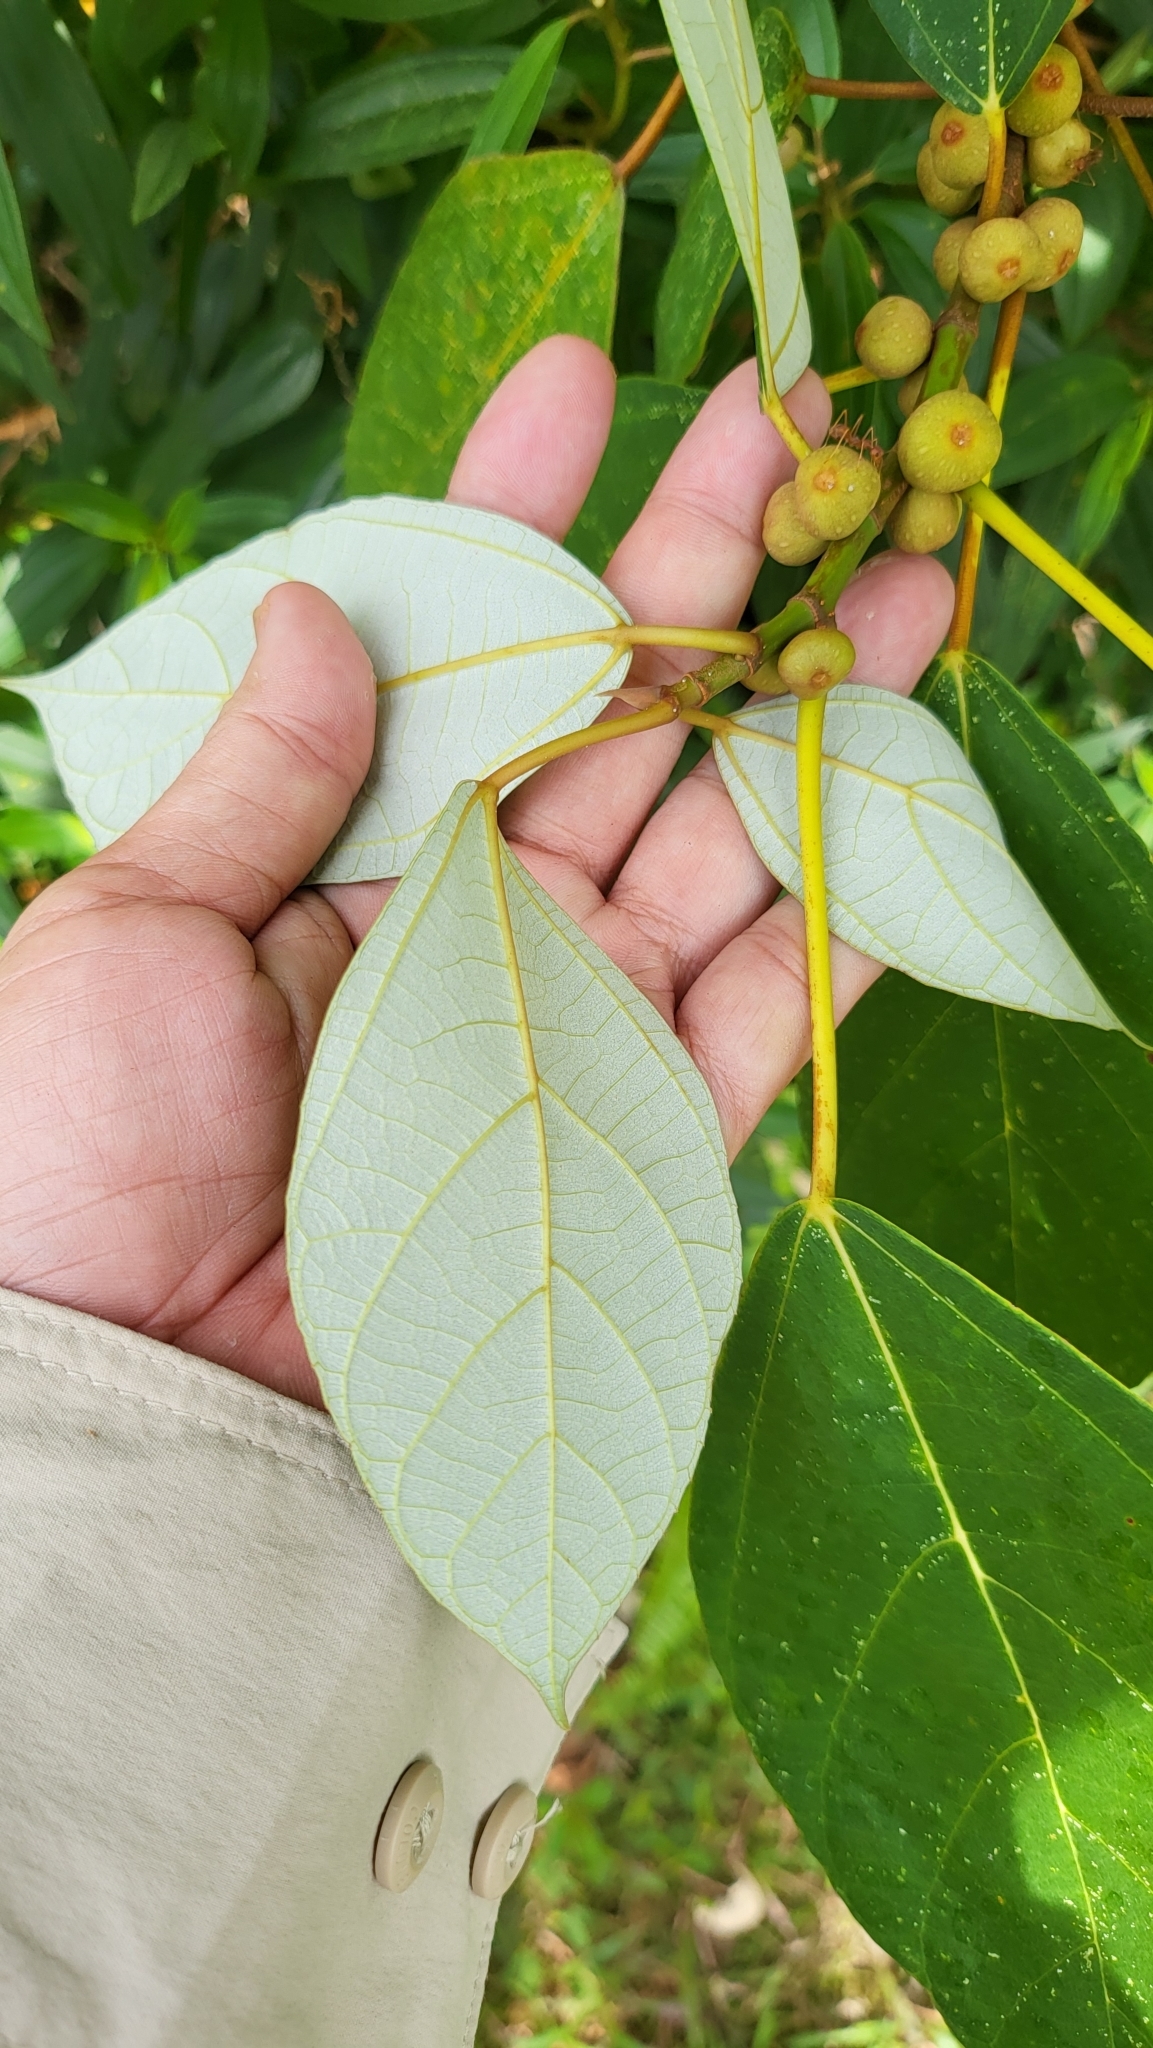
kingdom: Plantae
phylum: Tracheophyta
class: Magnoliopsida
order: Rosales
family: Moraceae
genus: Ficus
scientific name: Ficus grossularioides
